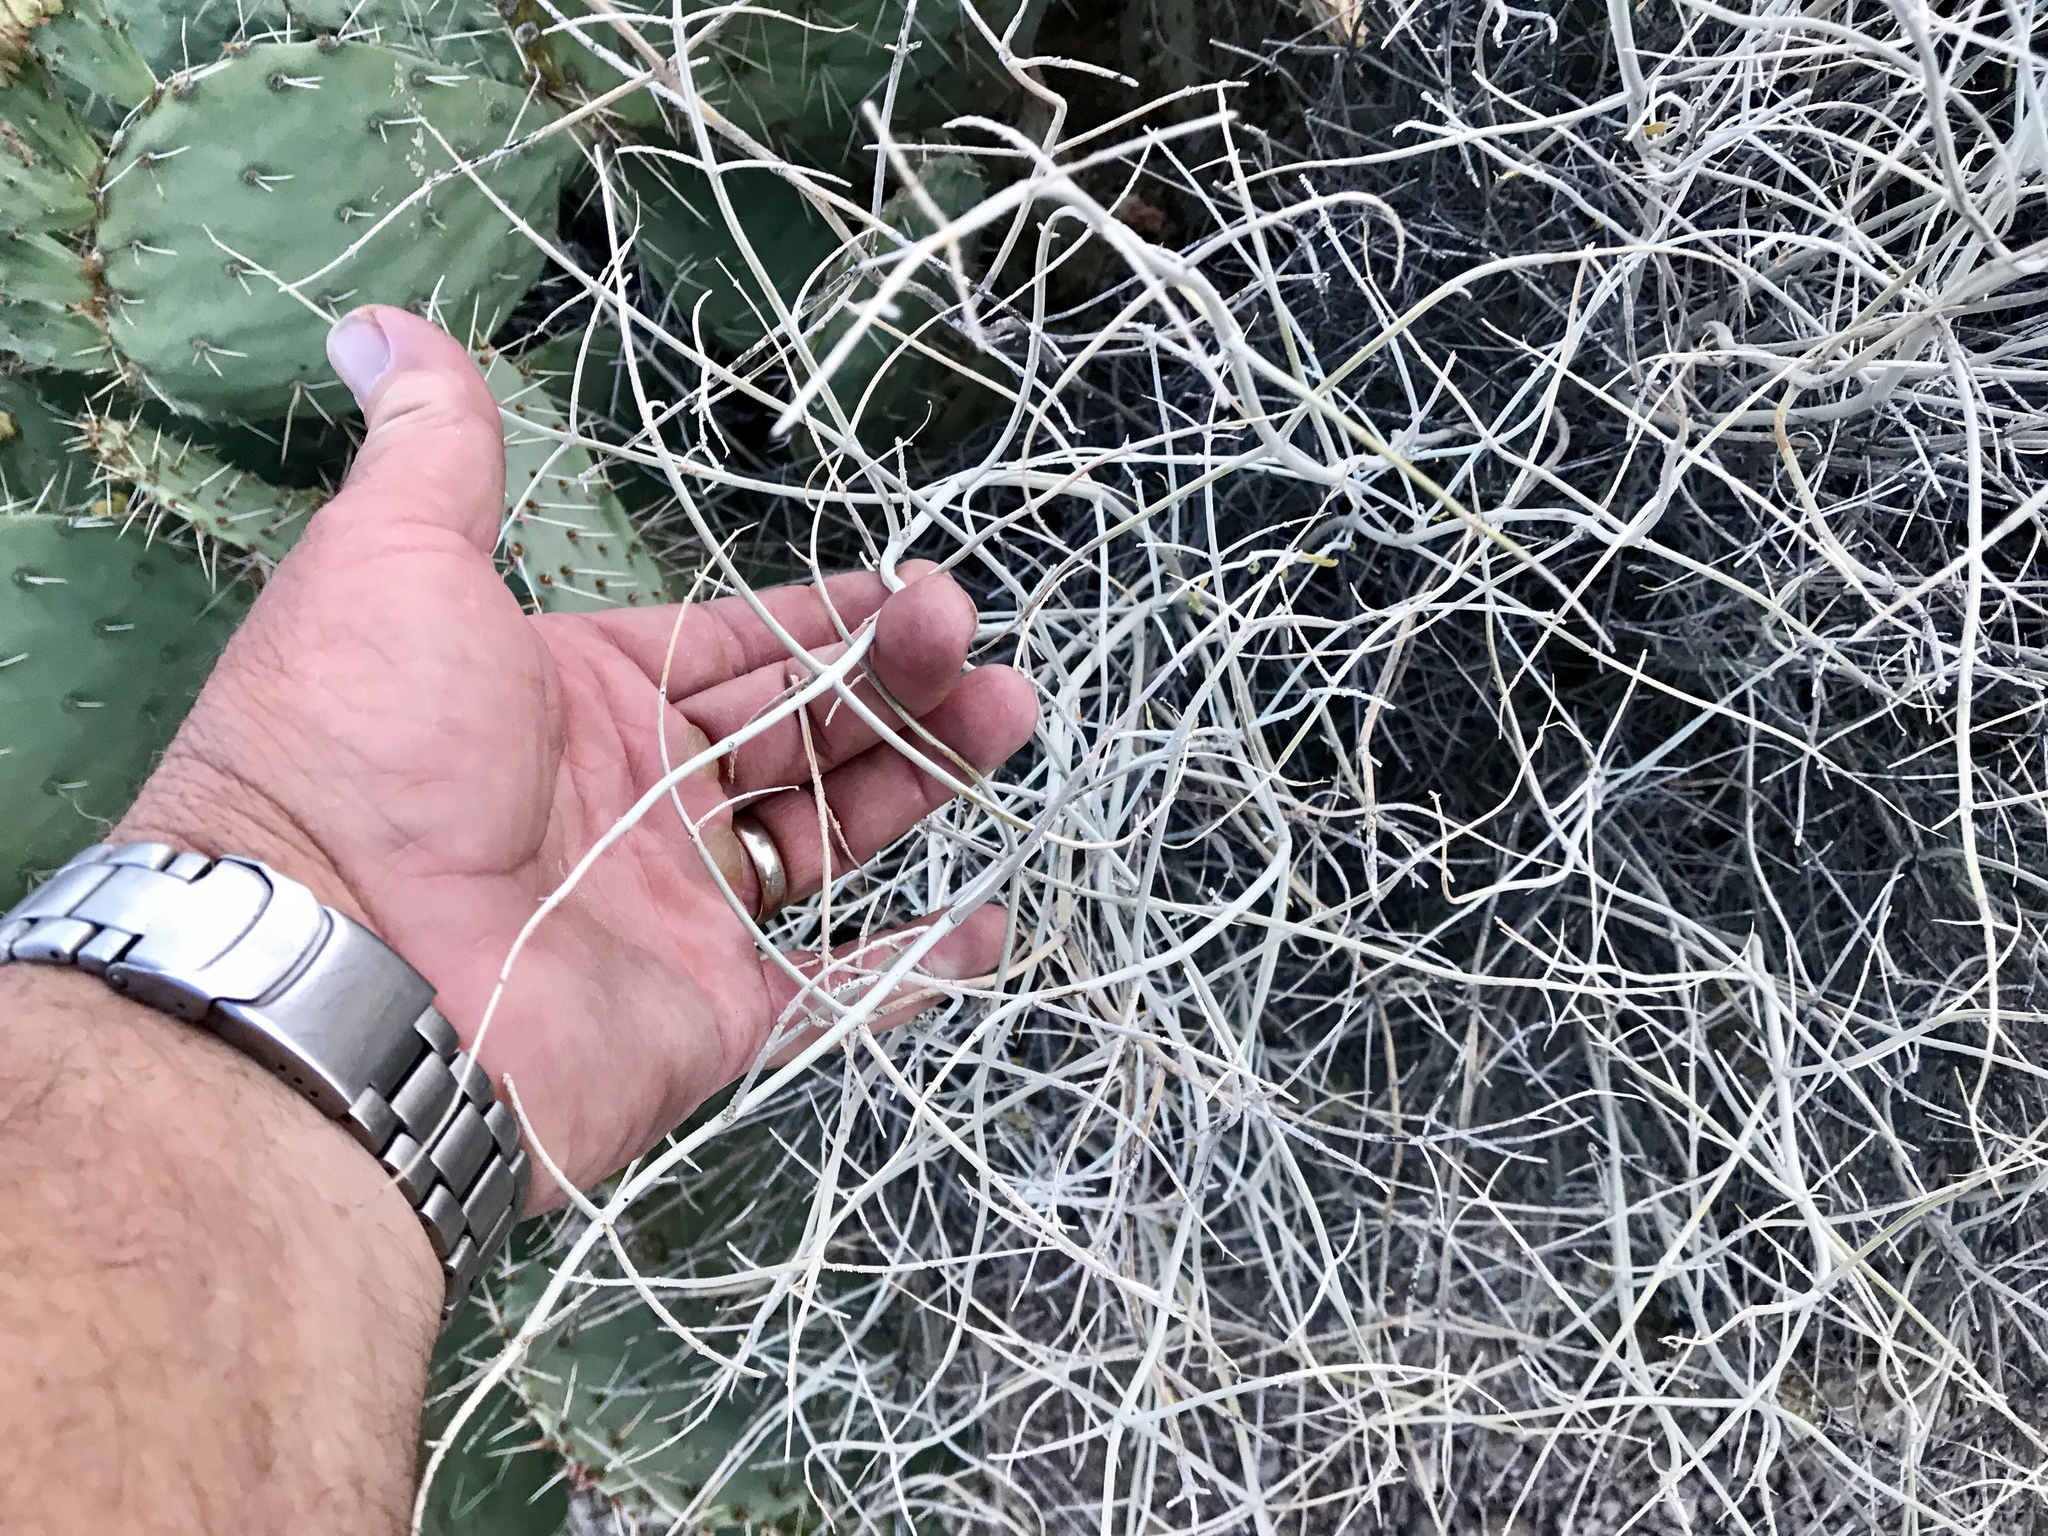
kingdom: Plantae
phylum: Tracheophyta
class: Magnoliopsida
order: Lamiales
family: Lamiaceae
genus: Scutellaria
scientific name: Scutellaria mexicana
